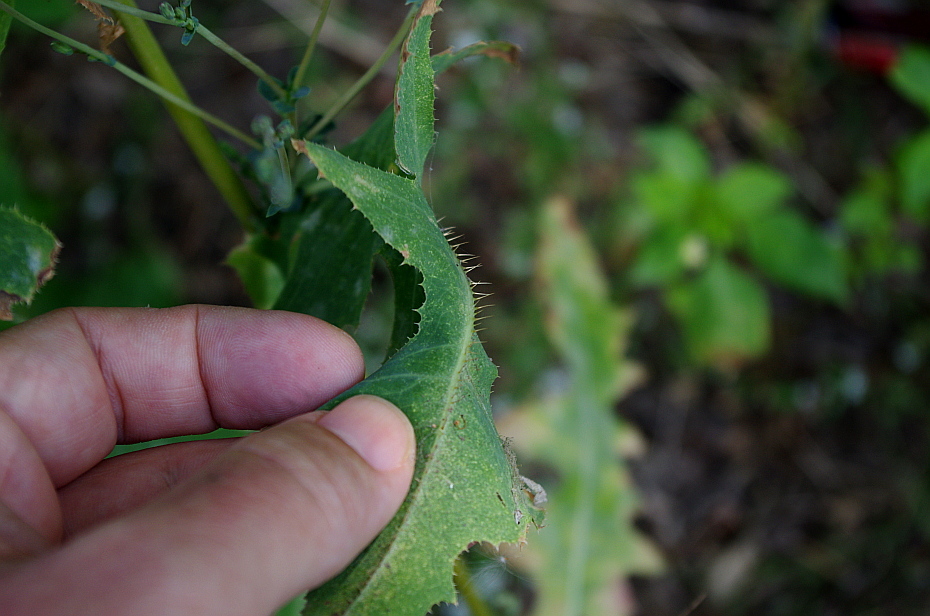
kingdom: Plantae
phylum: Tracheophyta
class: Magnoliopsida
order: Asterales
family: Asteraceae
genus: Lactuca
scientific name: Lactuca serriola
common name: Prickly lettuce
